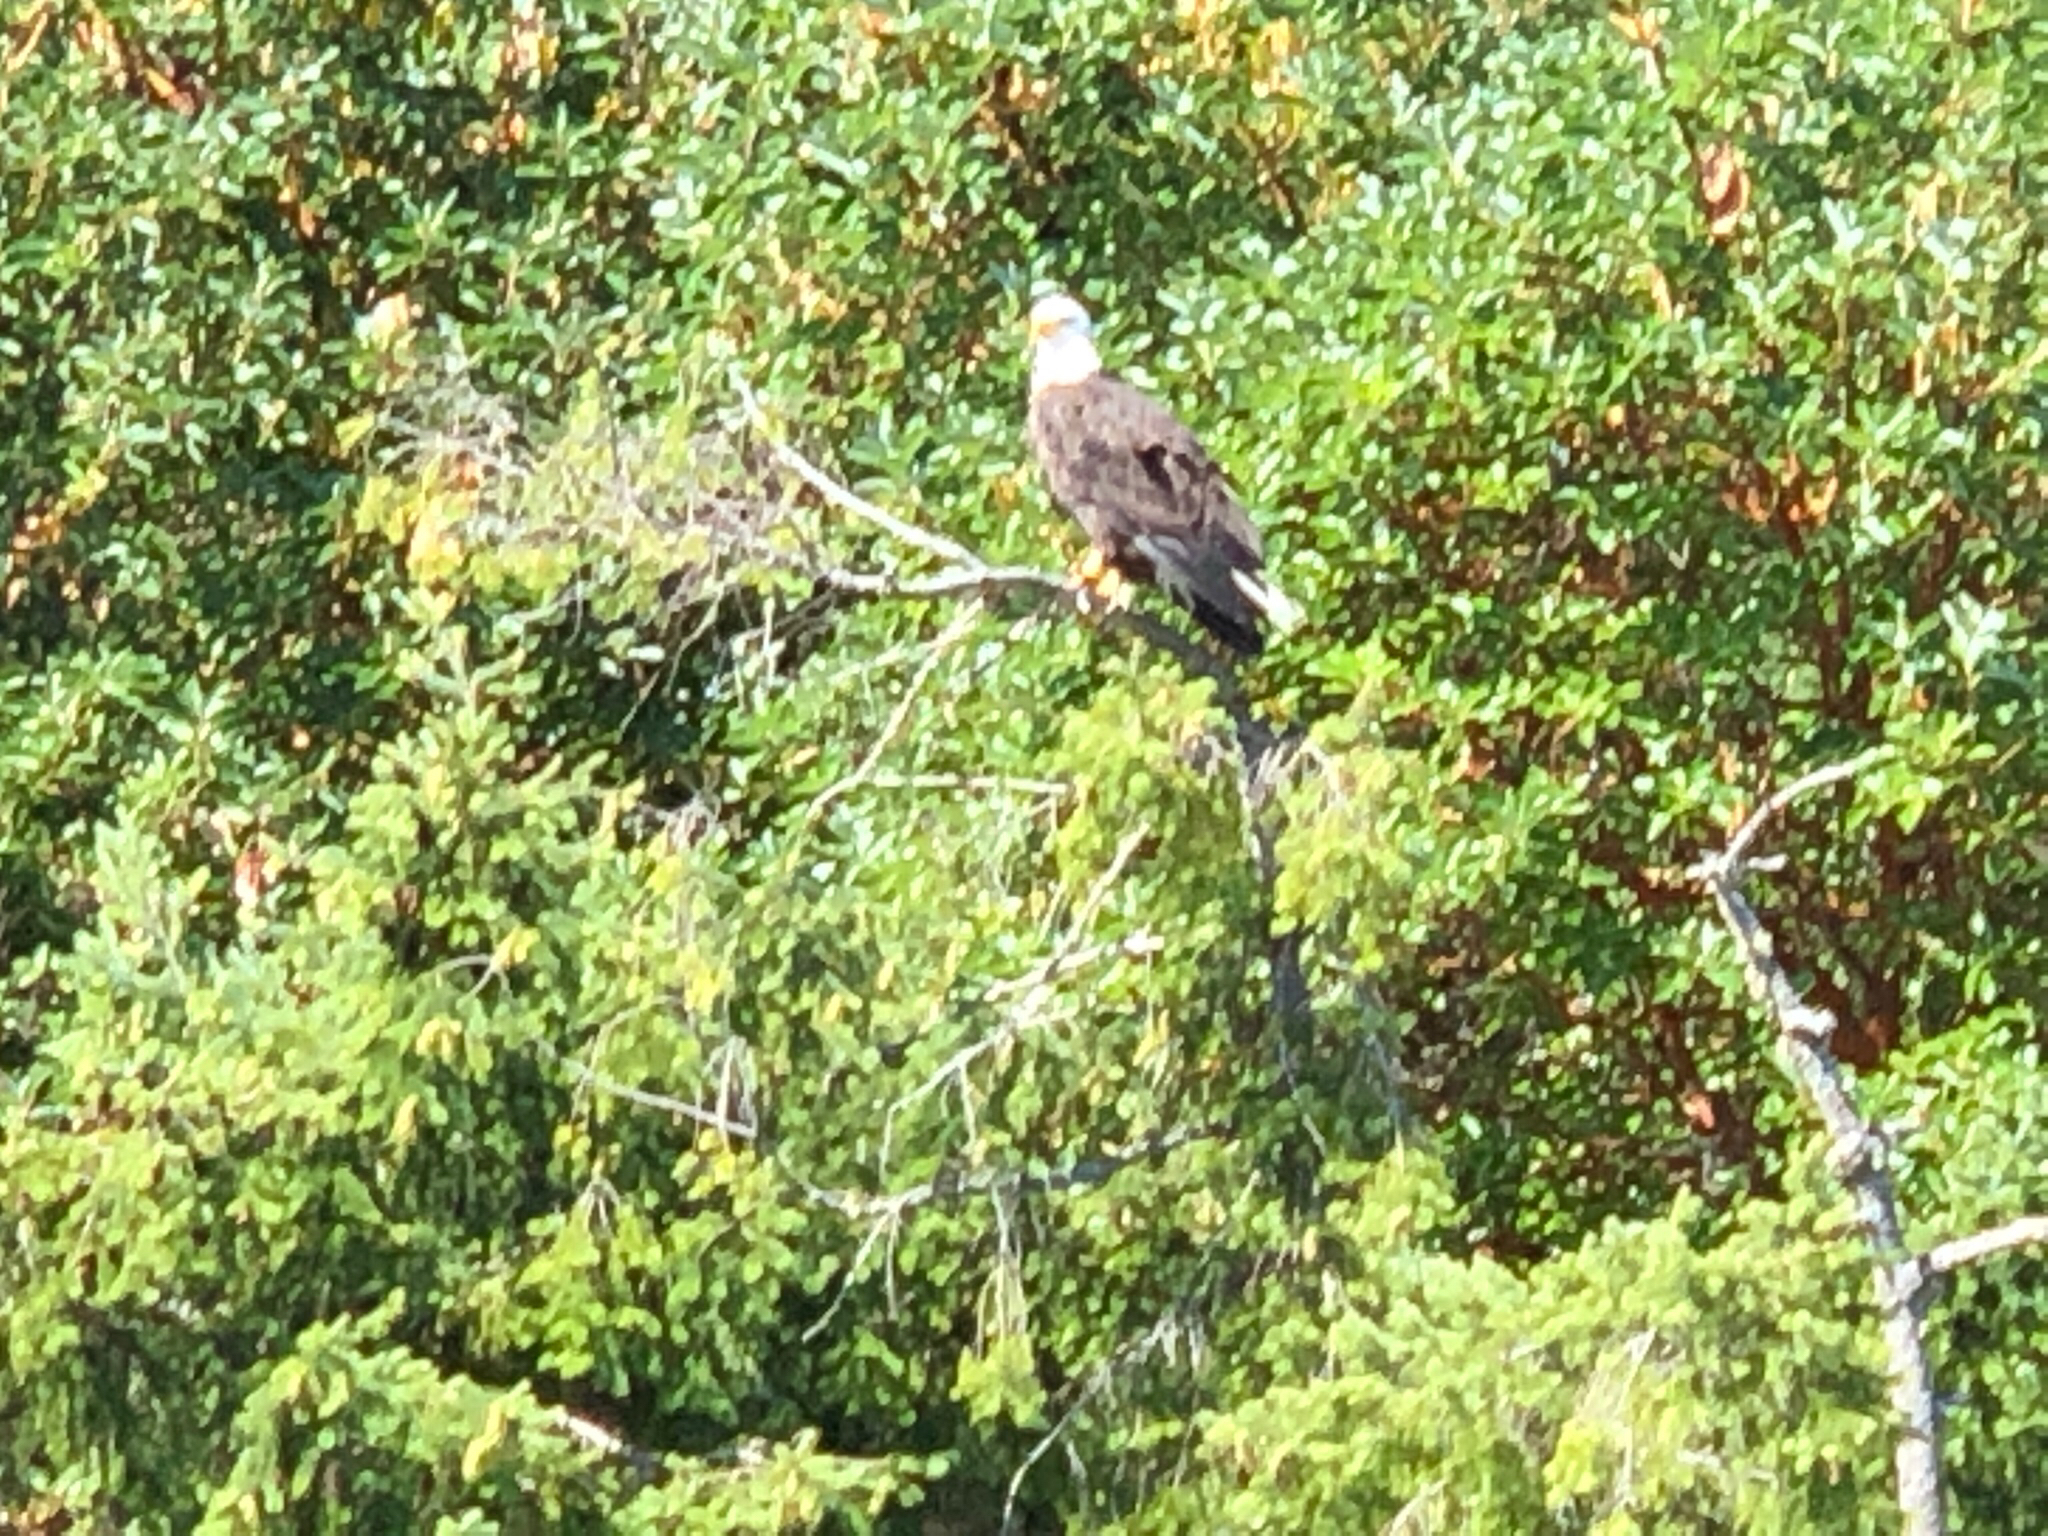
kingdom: Animalia
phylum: Chordata
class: Aves
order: Accipitriformes
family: Accipitridae
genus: Haliaeetus
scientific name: Haliaeetus leucocephalus
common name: Bald eagle
